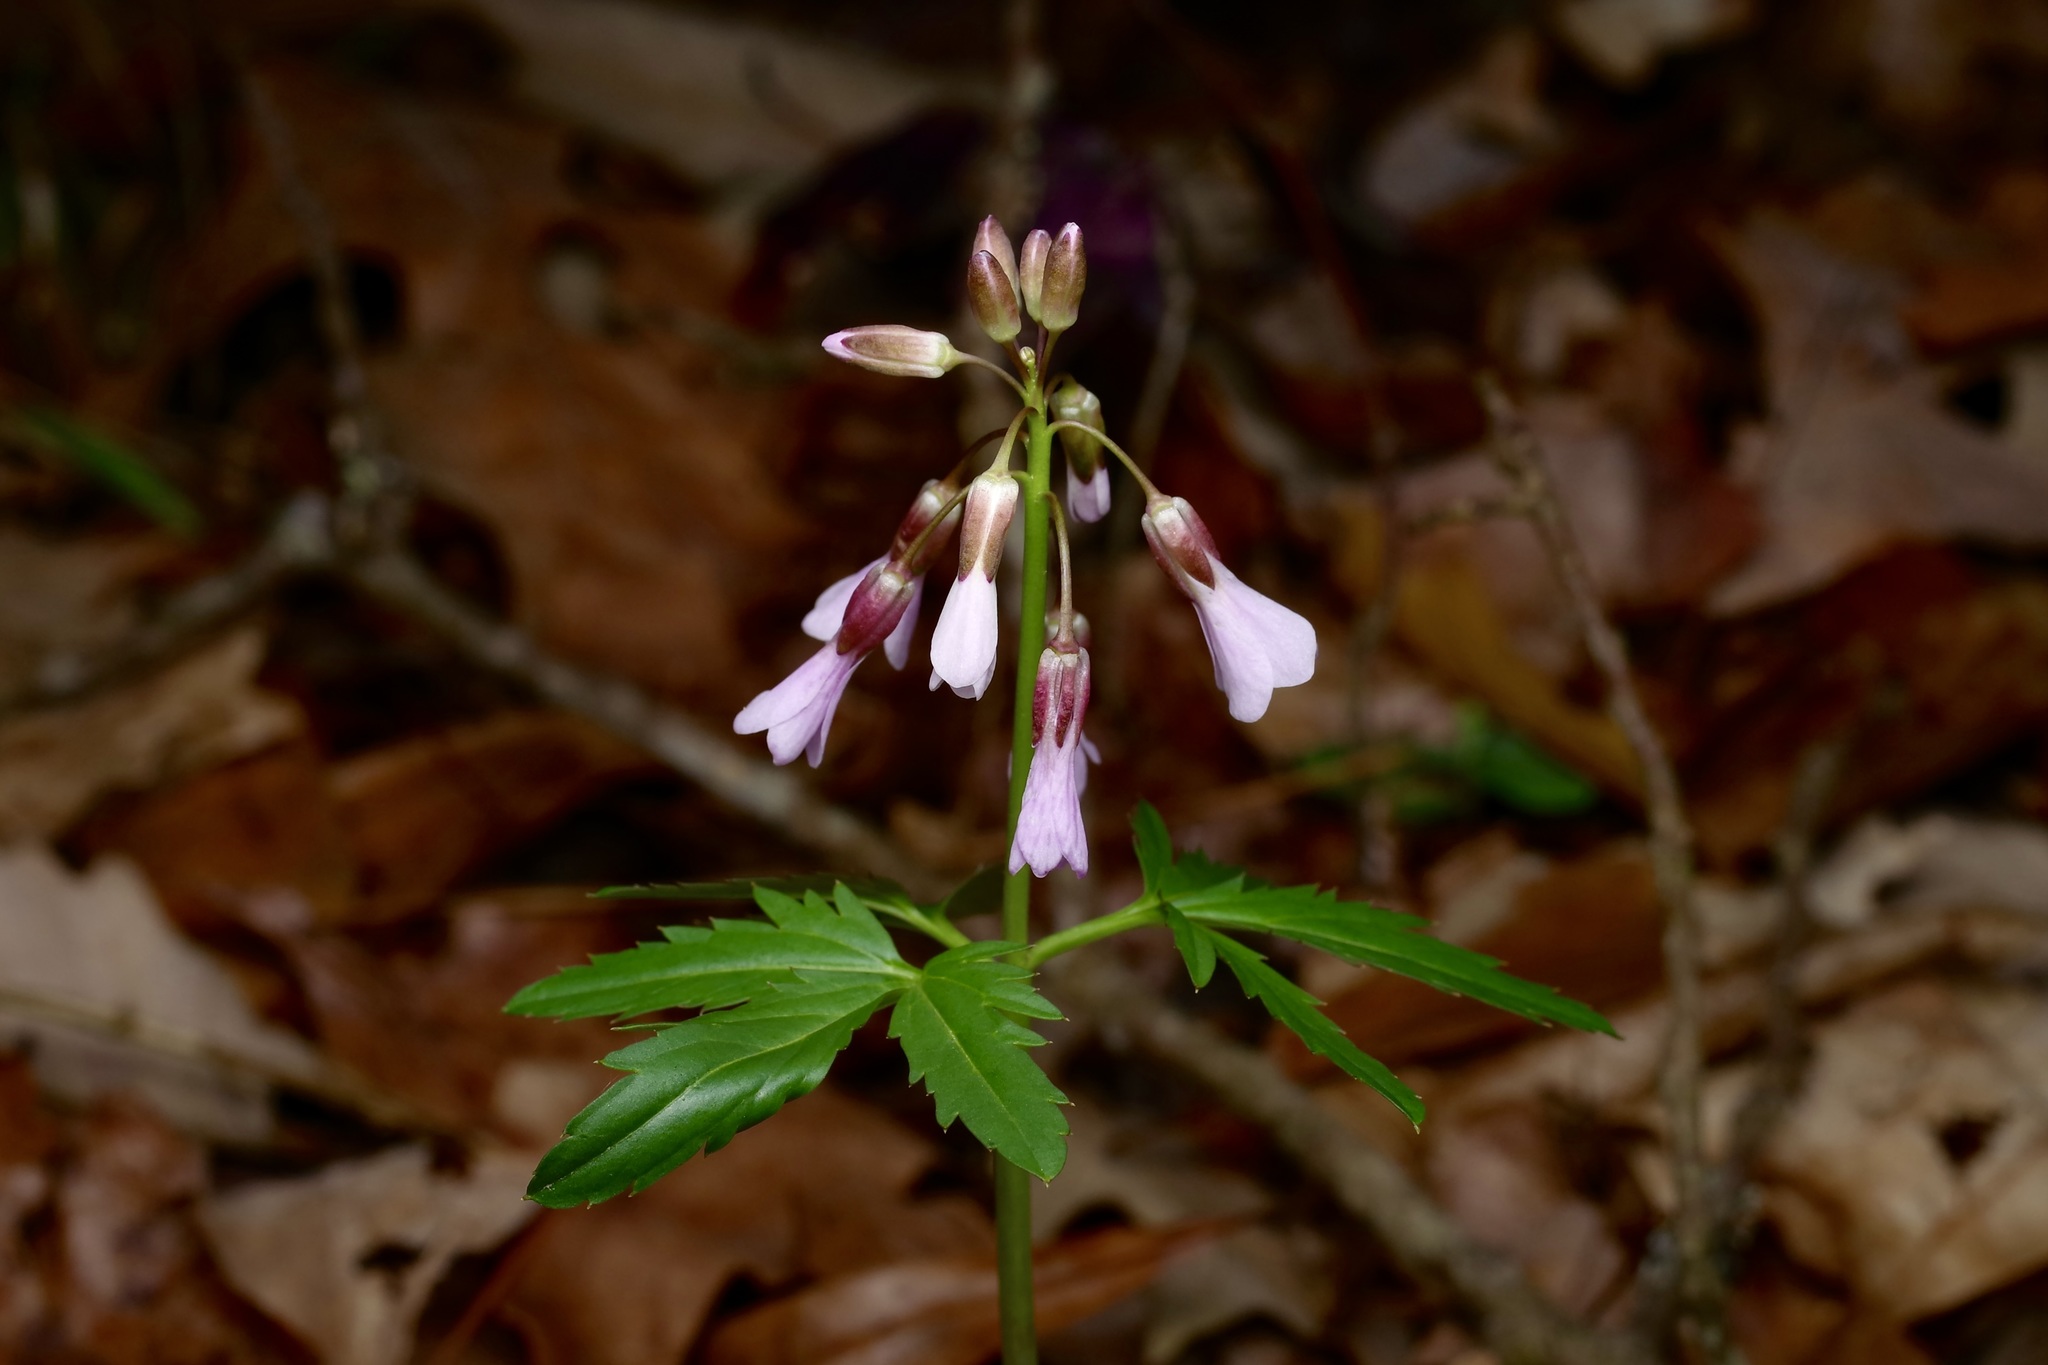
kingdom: Plantae
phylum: Tracheophyta
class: Magnoliopsida
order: Brassicales
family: Brassicaceae
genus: Cardamine
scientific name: Cardamine concatenata
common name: Cut-leaf toothcup
